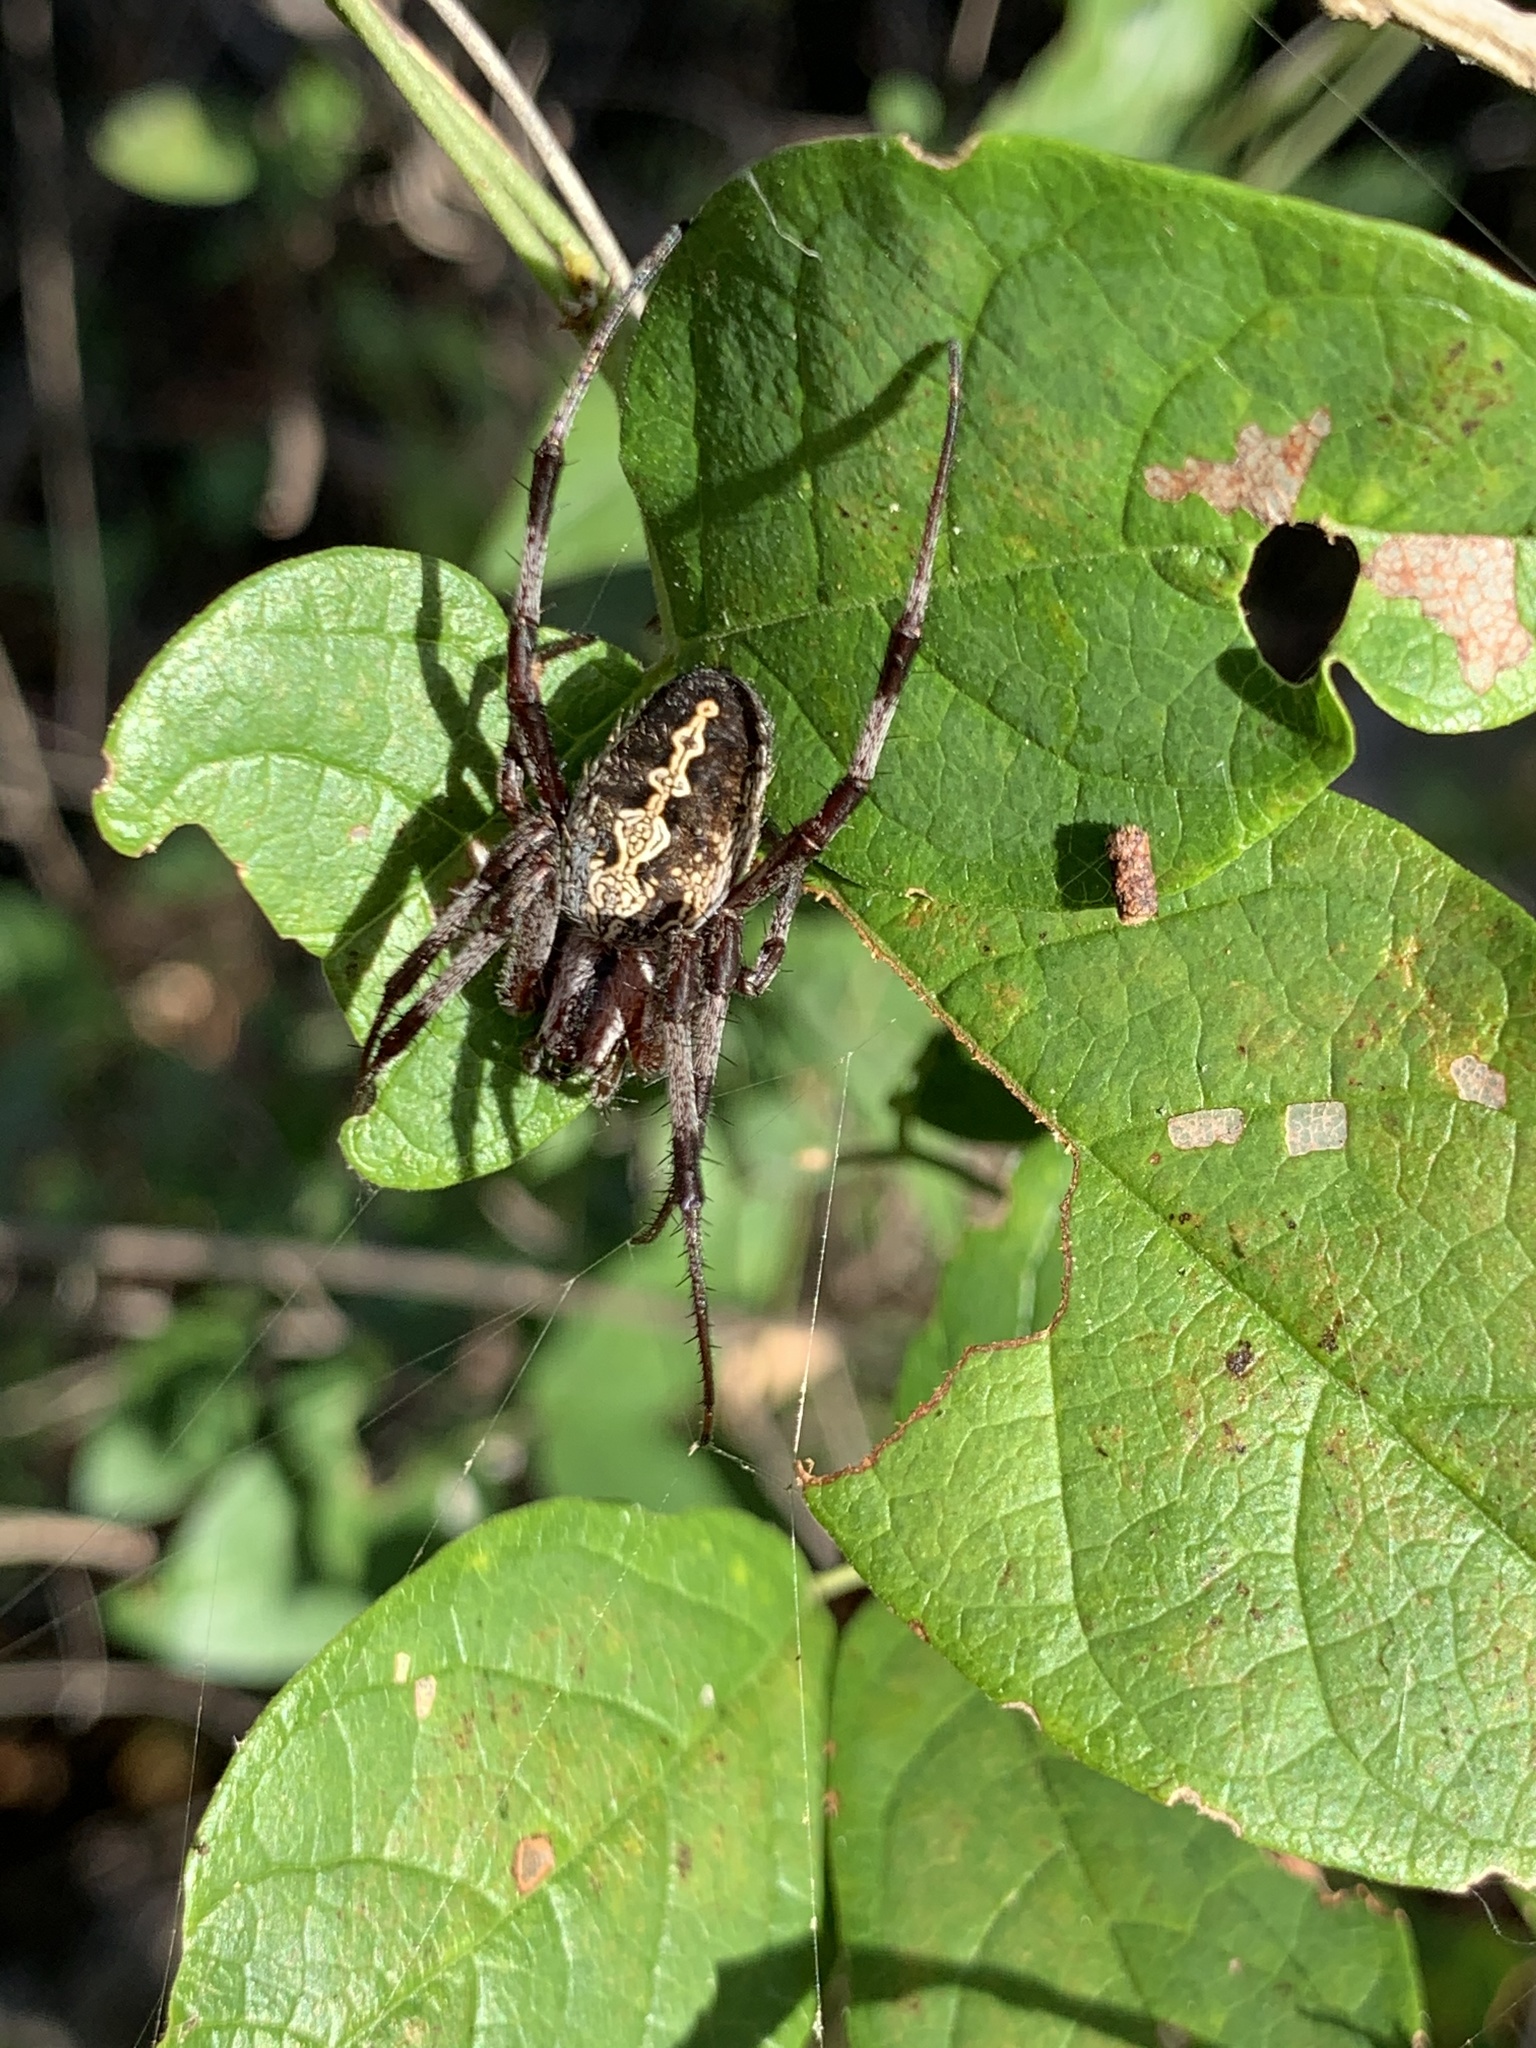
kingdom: Animalia
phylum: Arthropoda
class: Arachnida
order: Araneae
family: Araneidae
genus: Neoscona
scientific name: Neoscona oaxacensis
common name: Orb weavers
